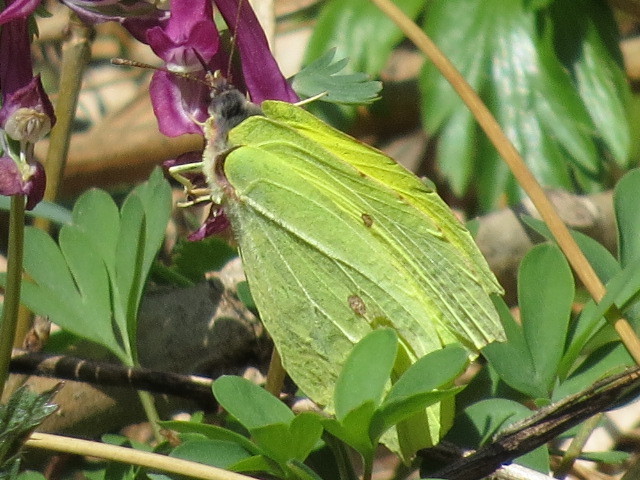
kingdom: Animalia
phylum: Arthropoda
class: Insecta
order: Lepidoptera
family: Pieridae
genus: Gonepteryx
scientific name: Gonepteryx rhamni
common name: Brimstone
